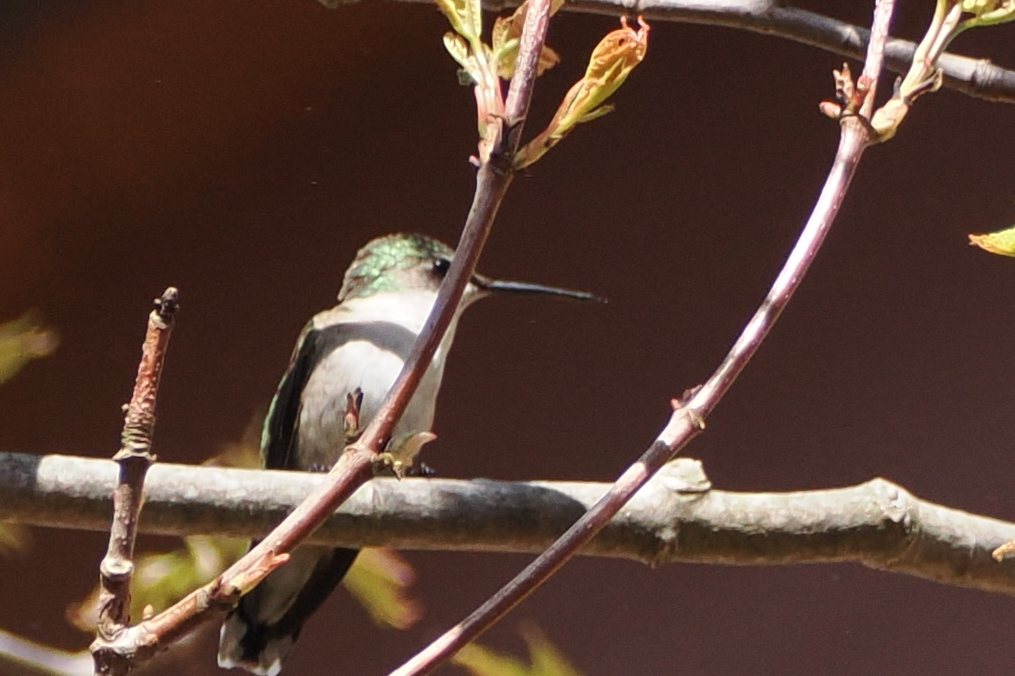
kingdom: Animalia
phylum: Chordata
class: Aves
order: Apodiformes
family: Trochilidae
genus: Archilochus
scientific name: Archilochus colubris
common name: Ruby-throated hummingbird
